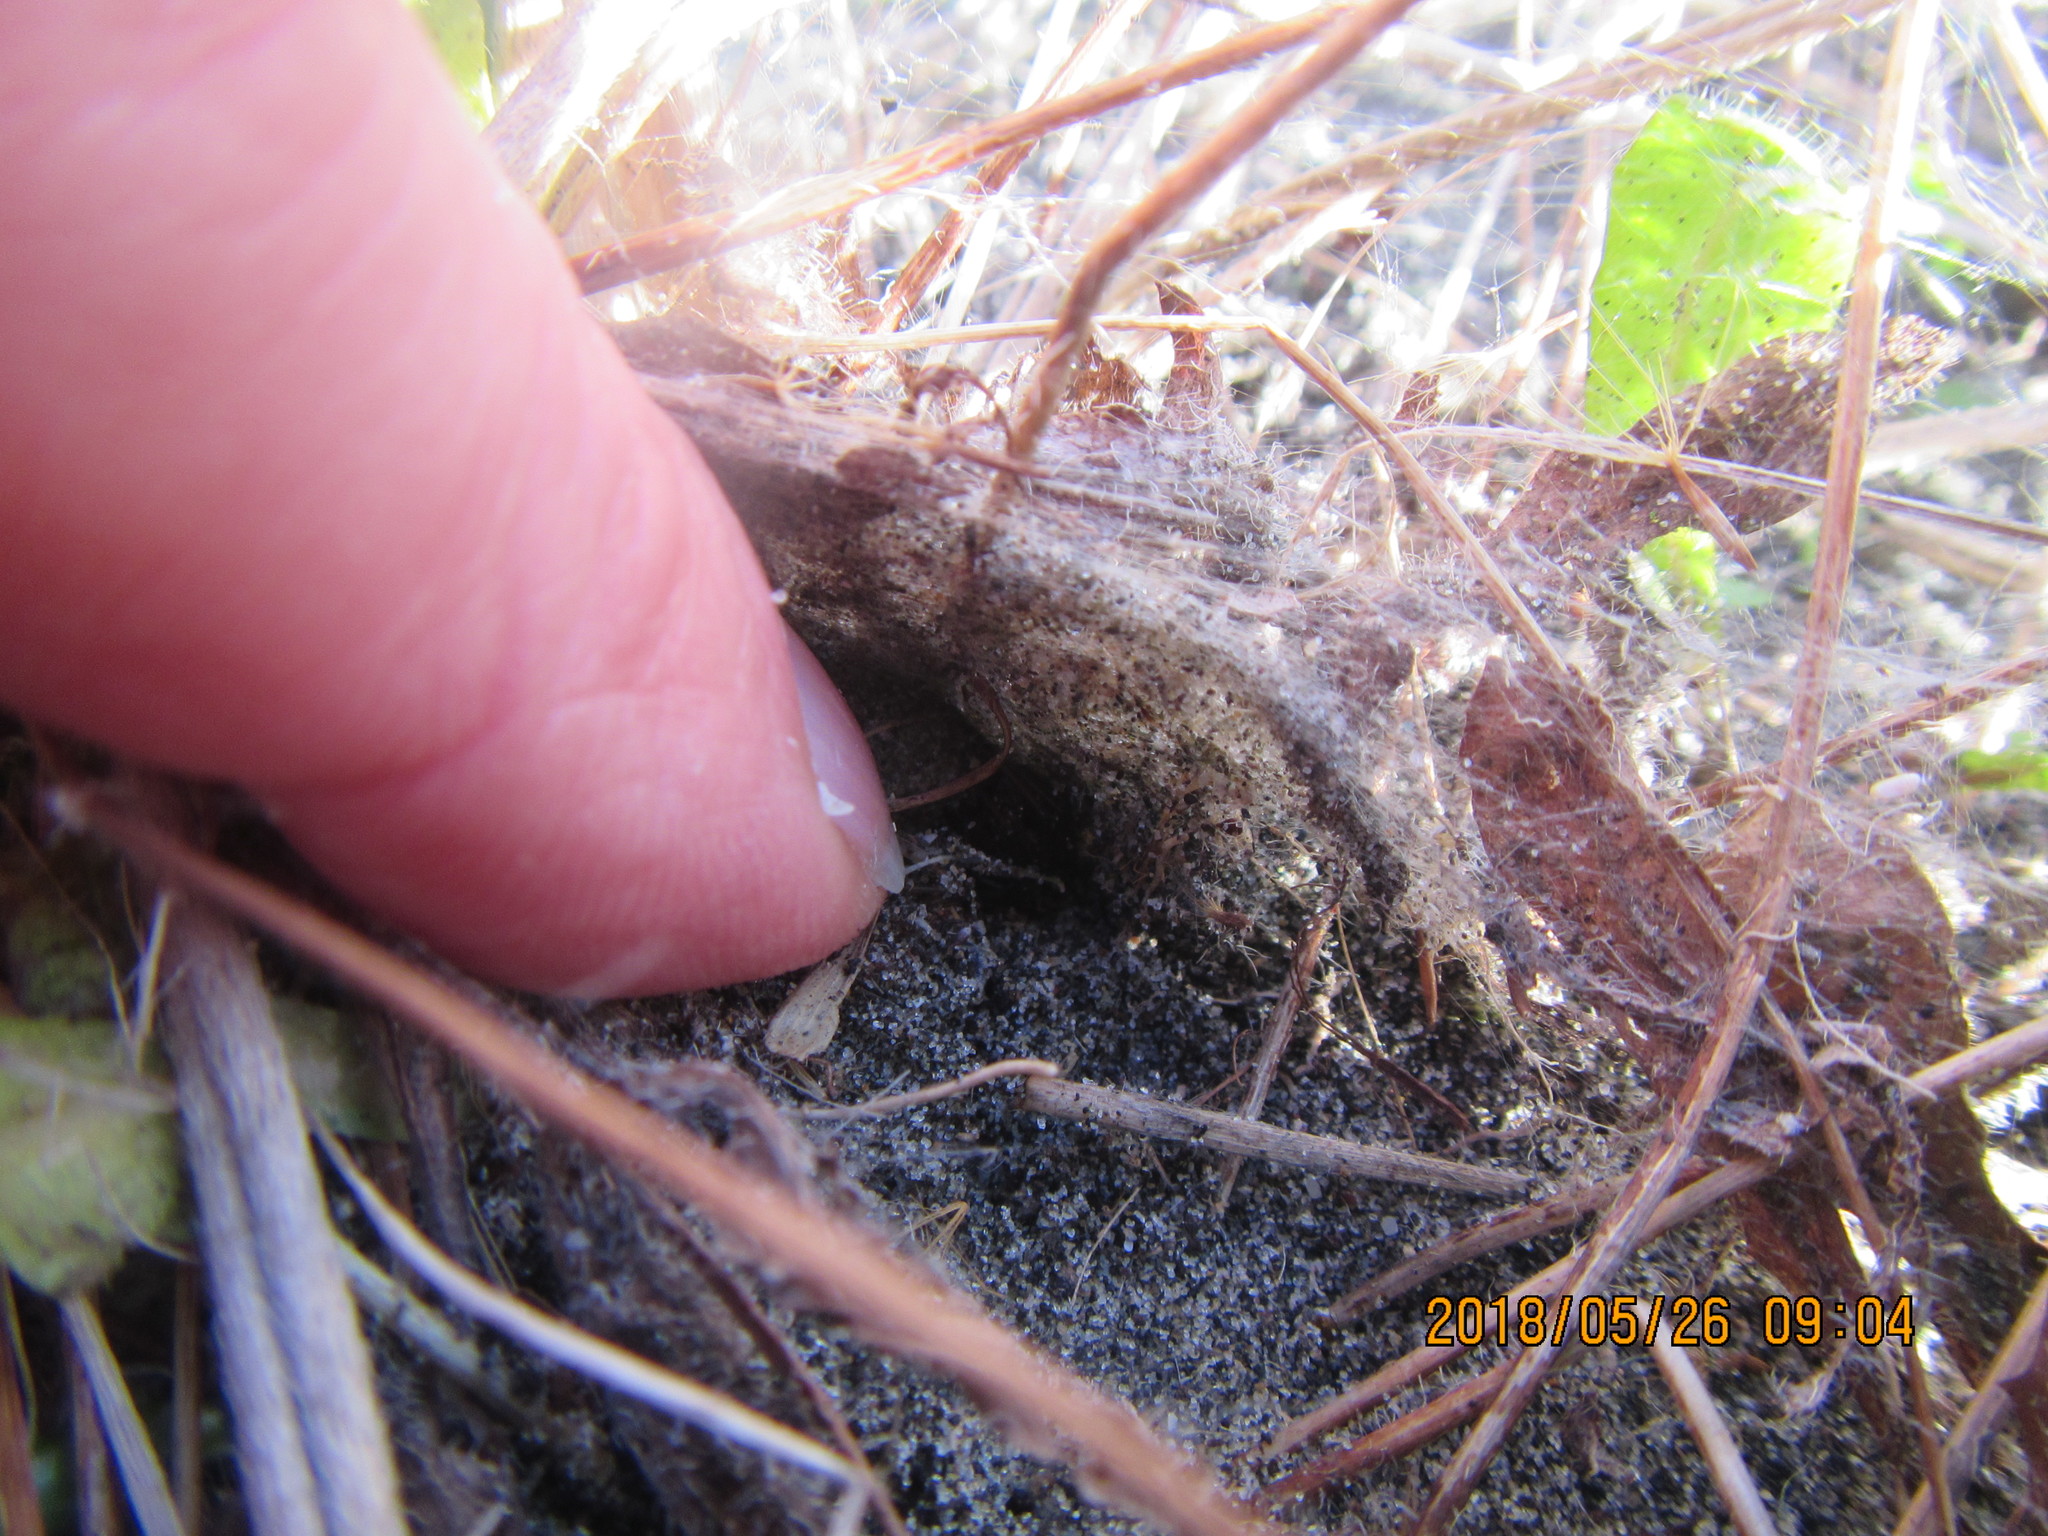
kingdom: Animalia
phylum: Arthropoda
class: Arachnida
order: Araneae
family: Theridiidae
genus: Latrodectus
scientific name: Latrodectus katipo
